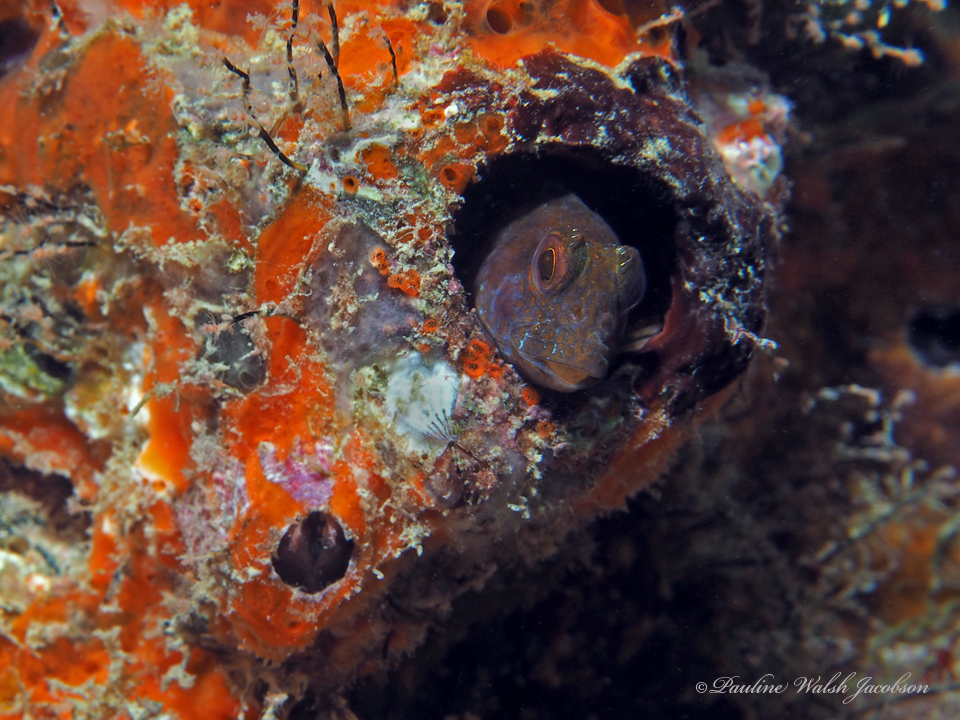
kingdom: Animalia
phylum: Chordata
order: Perciformes
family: Blenniidae
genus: Parablennius
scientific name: Parablennius marmoreus
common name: Seaweed blenny
